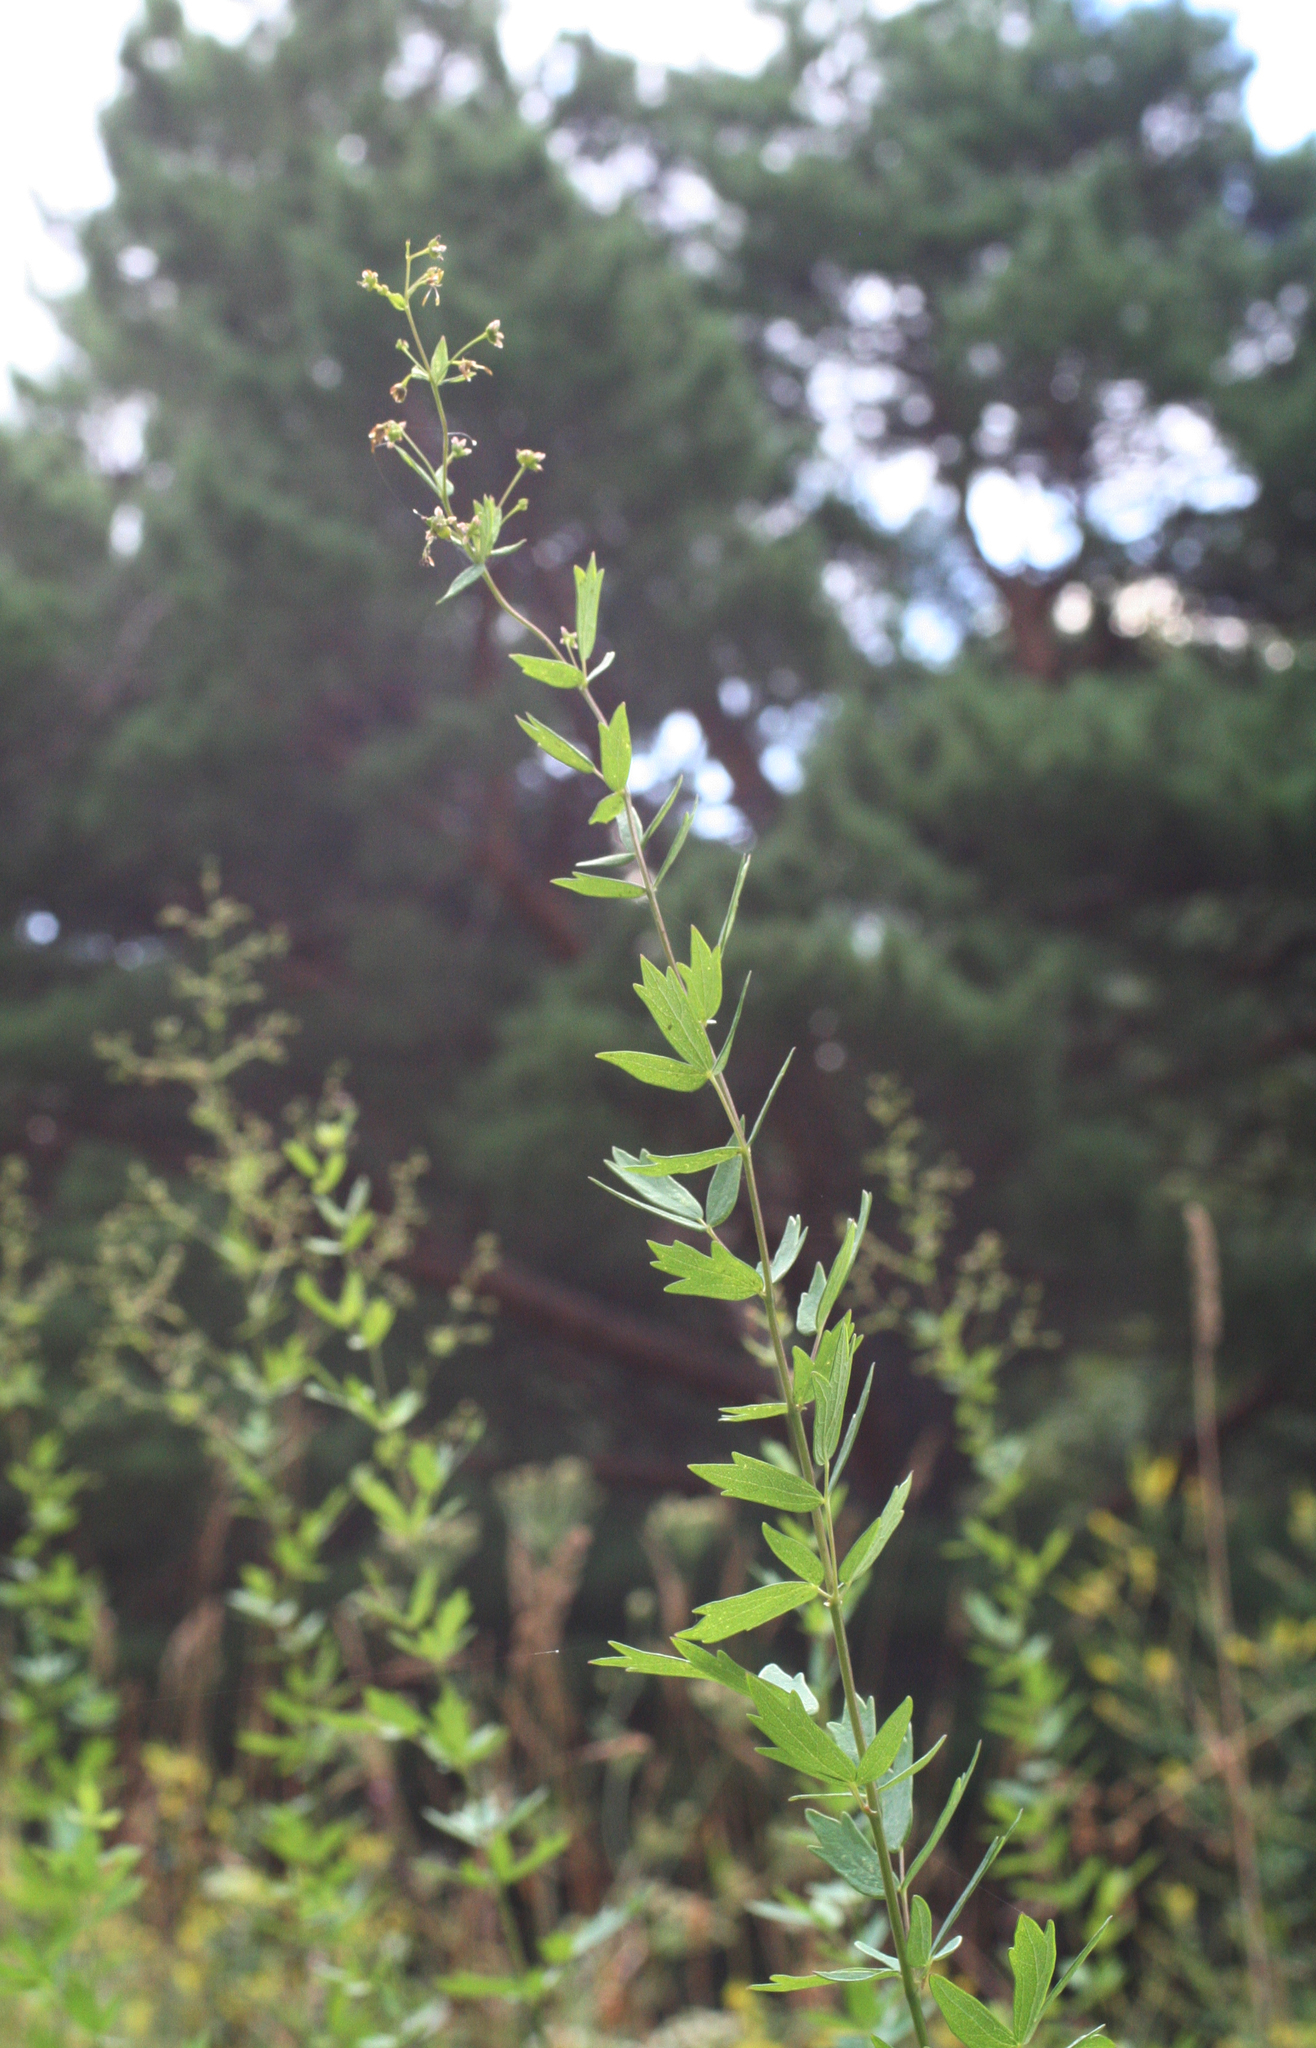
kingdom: Plantae
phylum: Tracheophyta
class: Magnoliopsida
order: Ranunculales
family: Ranunculaceae
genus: Thalictrum
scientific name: Thalictrum simplex
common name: Small meadow-rue
